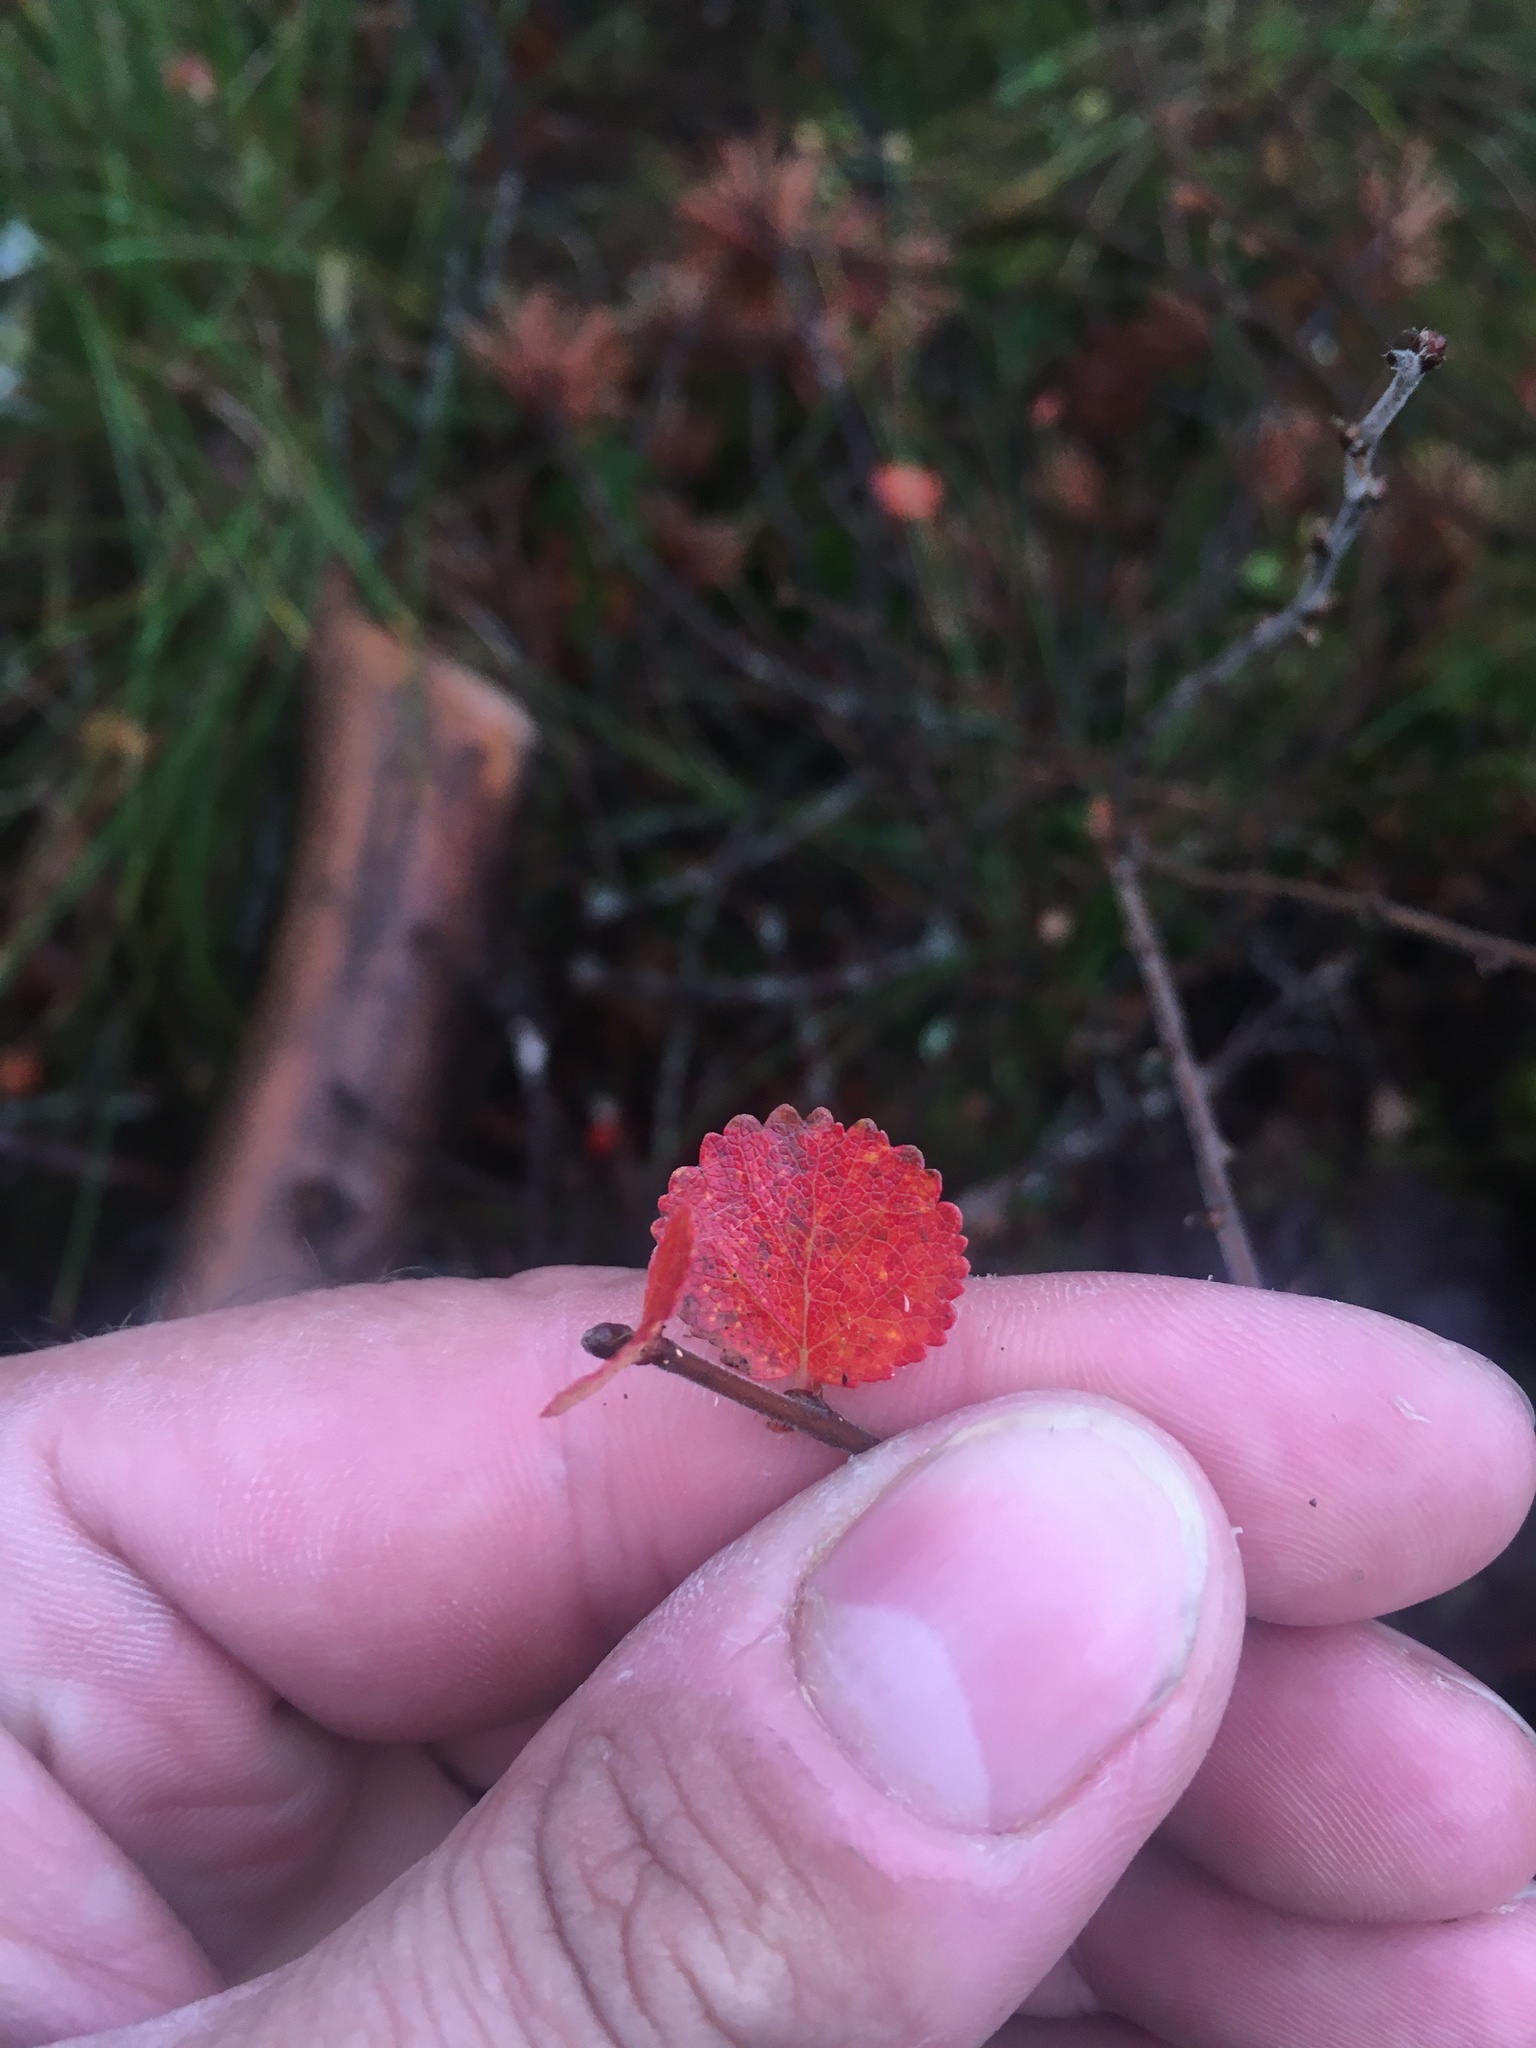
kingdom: Plantae
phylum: Tracheophyta
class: Magnoliopsida
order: Fagales
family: Betulaceae
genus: Betula
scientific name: Betula nana
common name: Arctic dwarf birch
